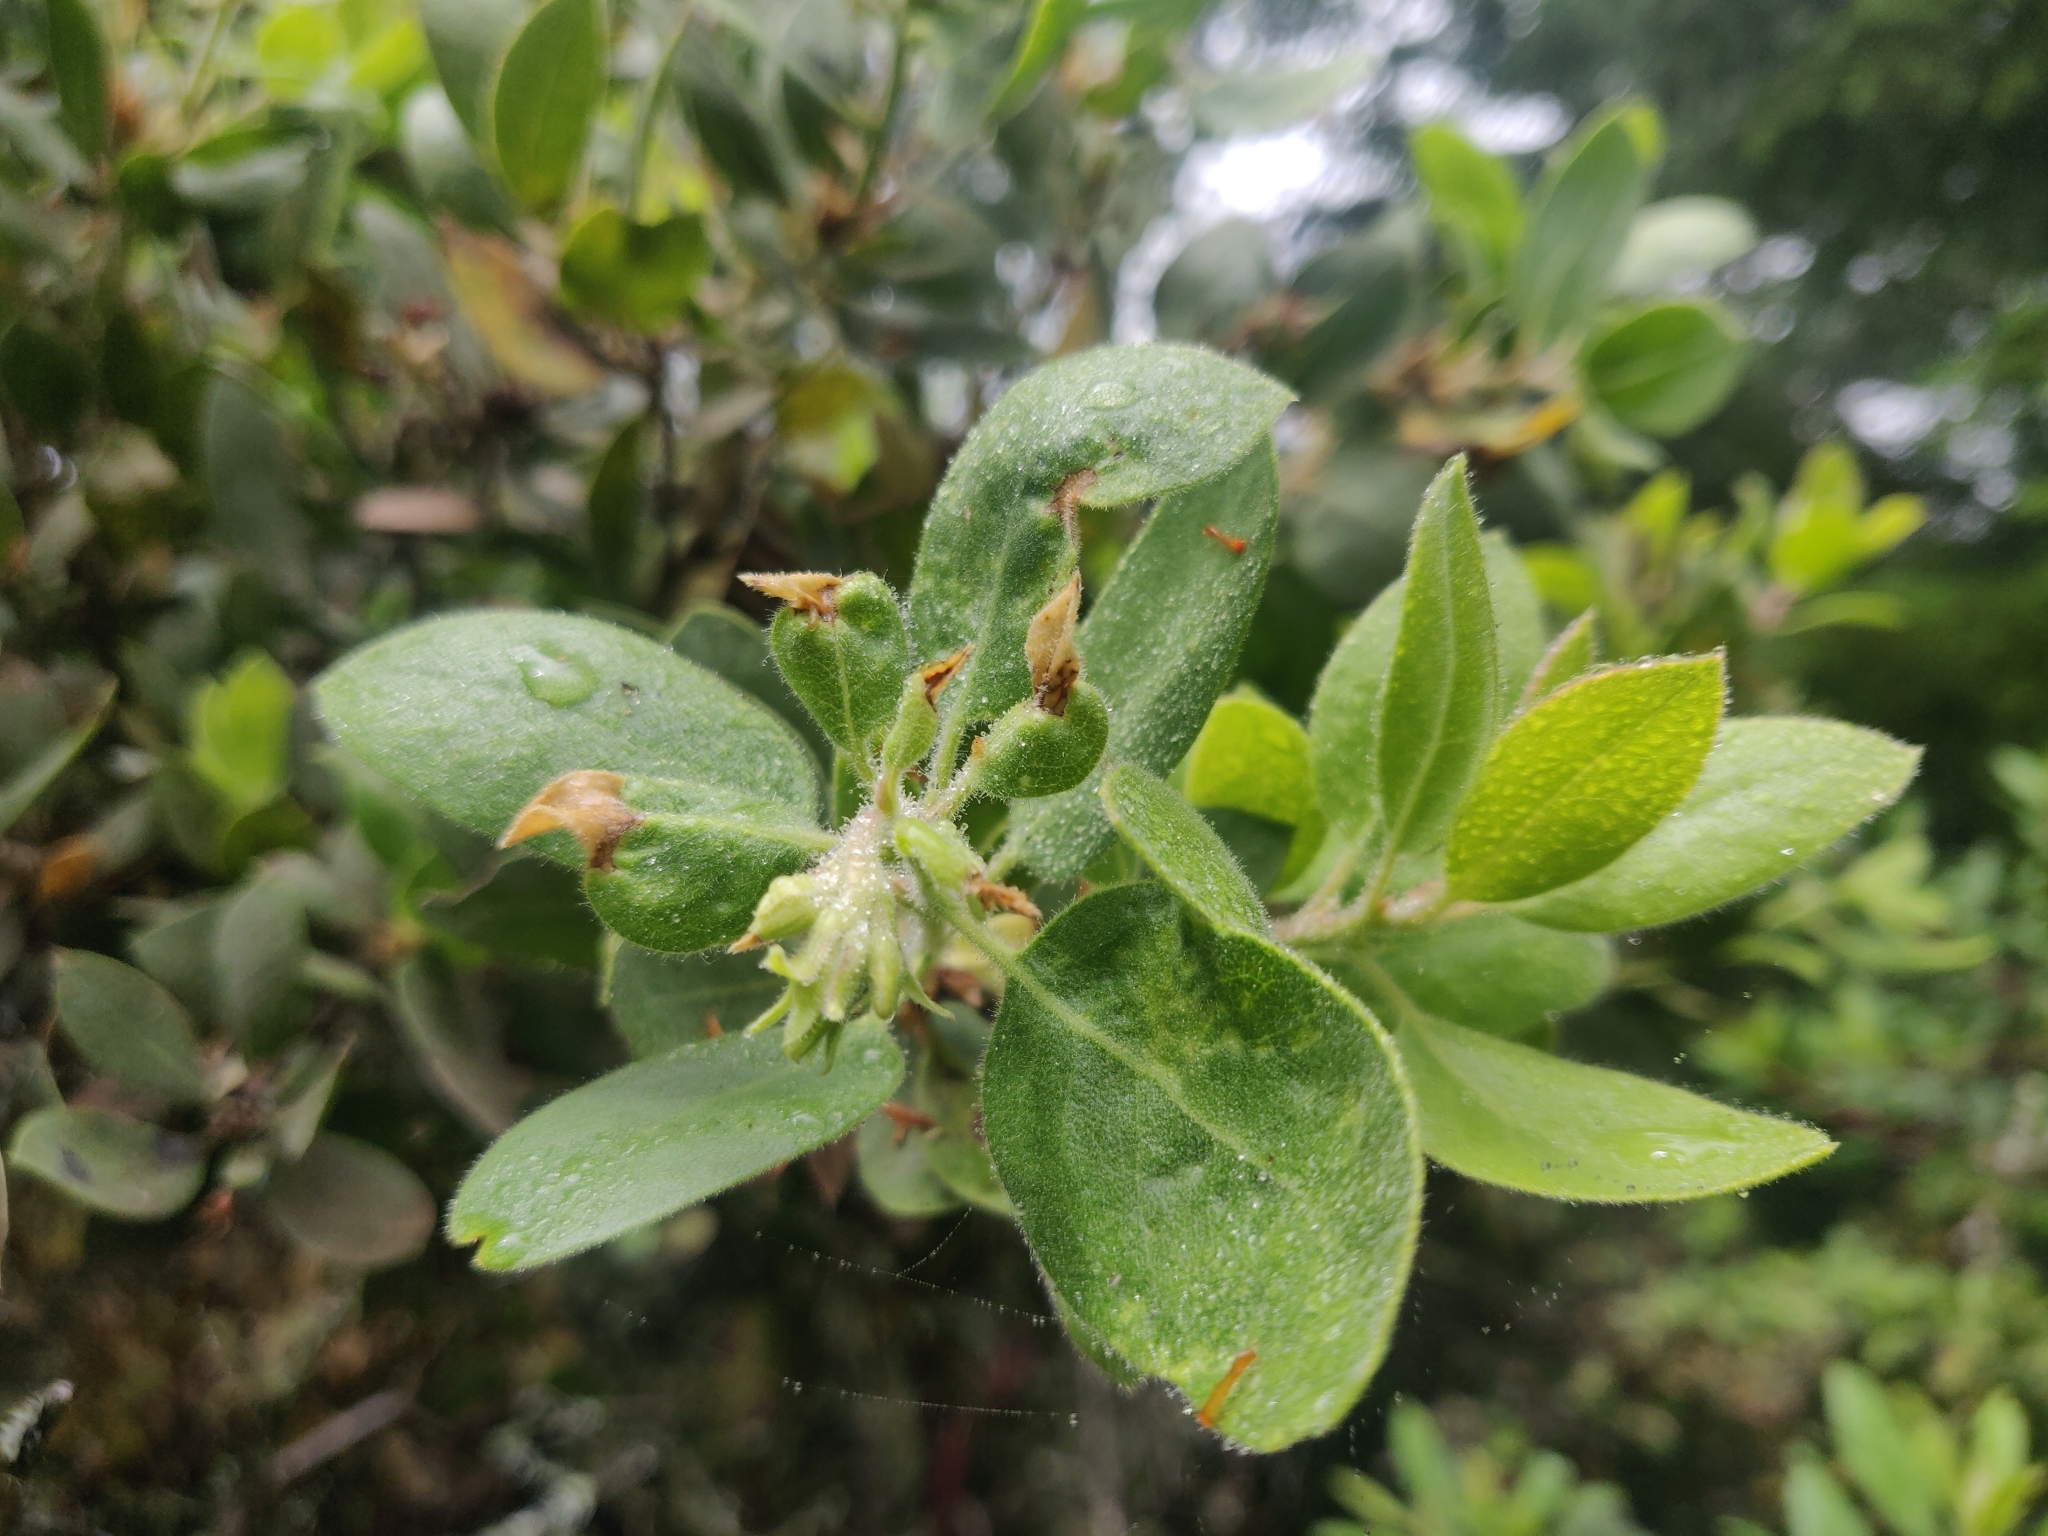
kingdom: Plantae
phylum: Tracheophyta
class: Magnoliopsida
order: Ericales
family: Ericaceae
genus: Arctostaphylos
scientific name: Arctostaphylos glandulosa
